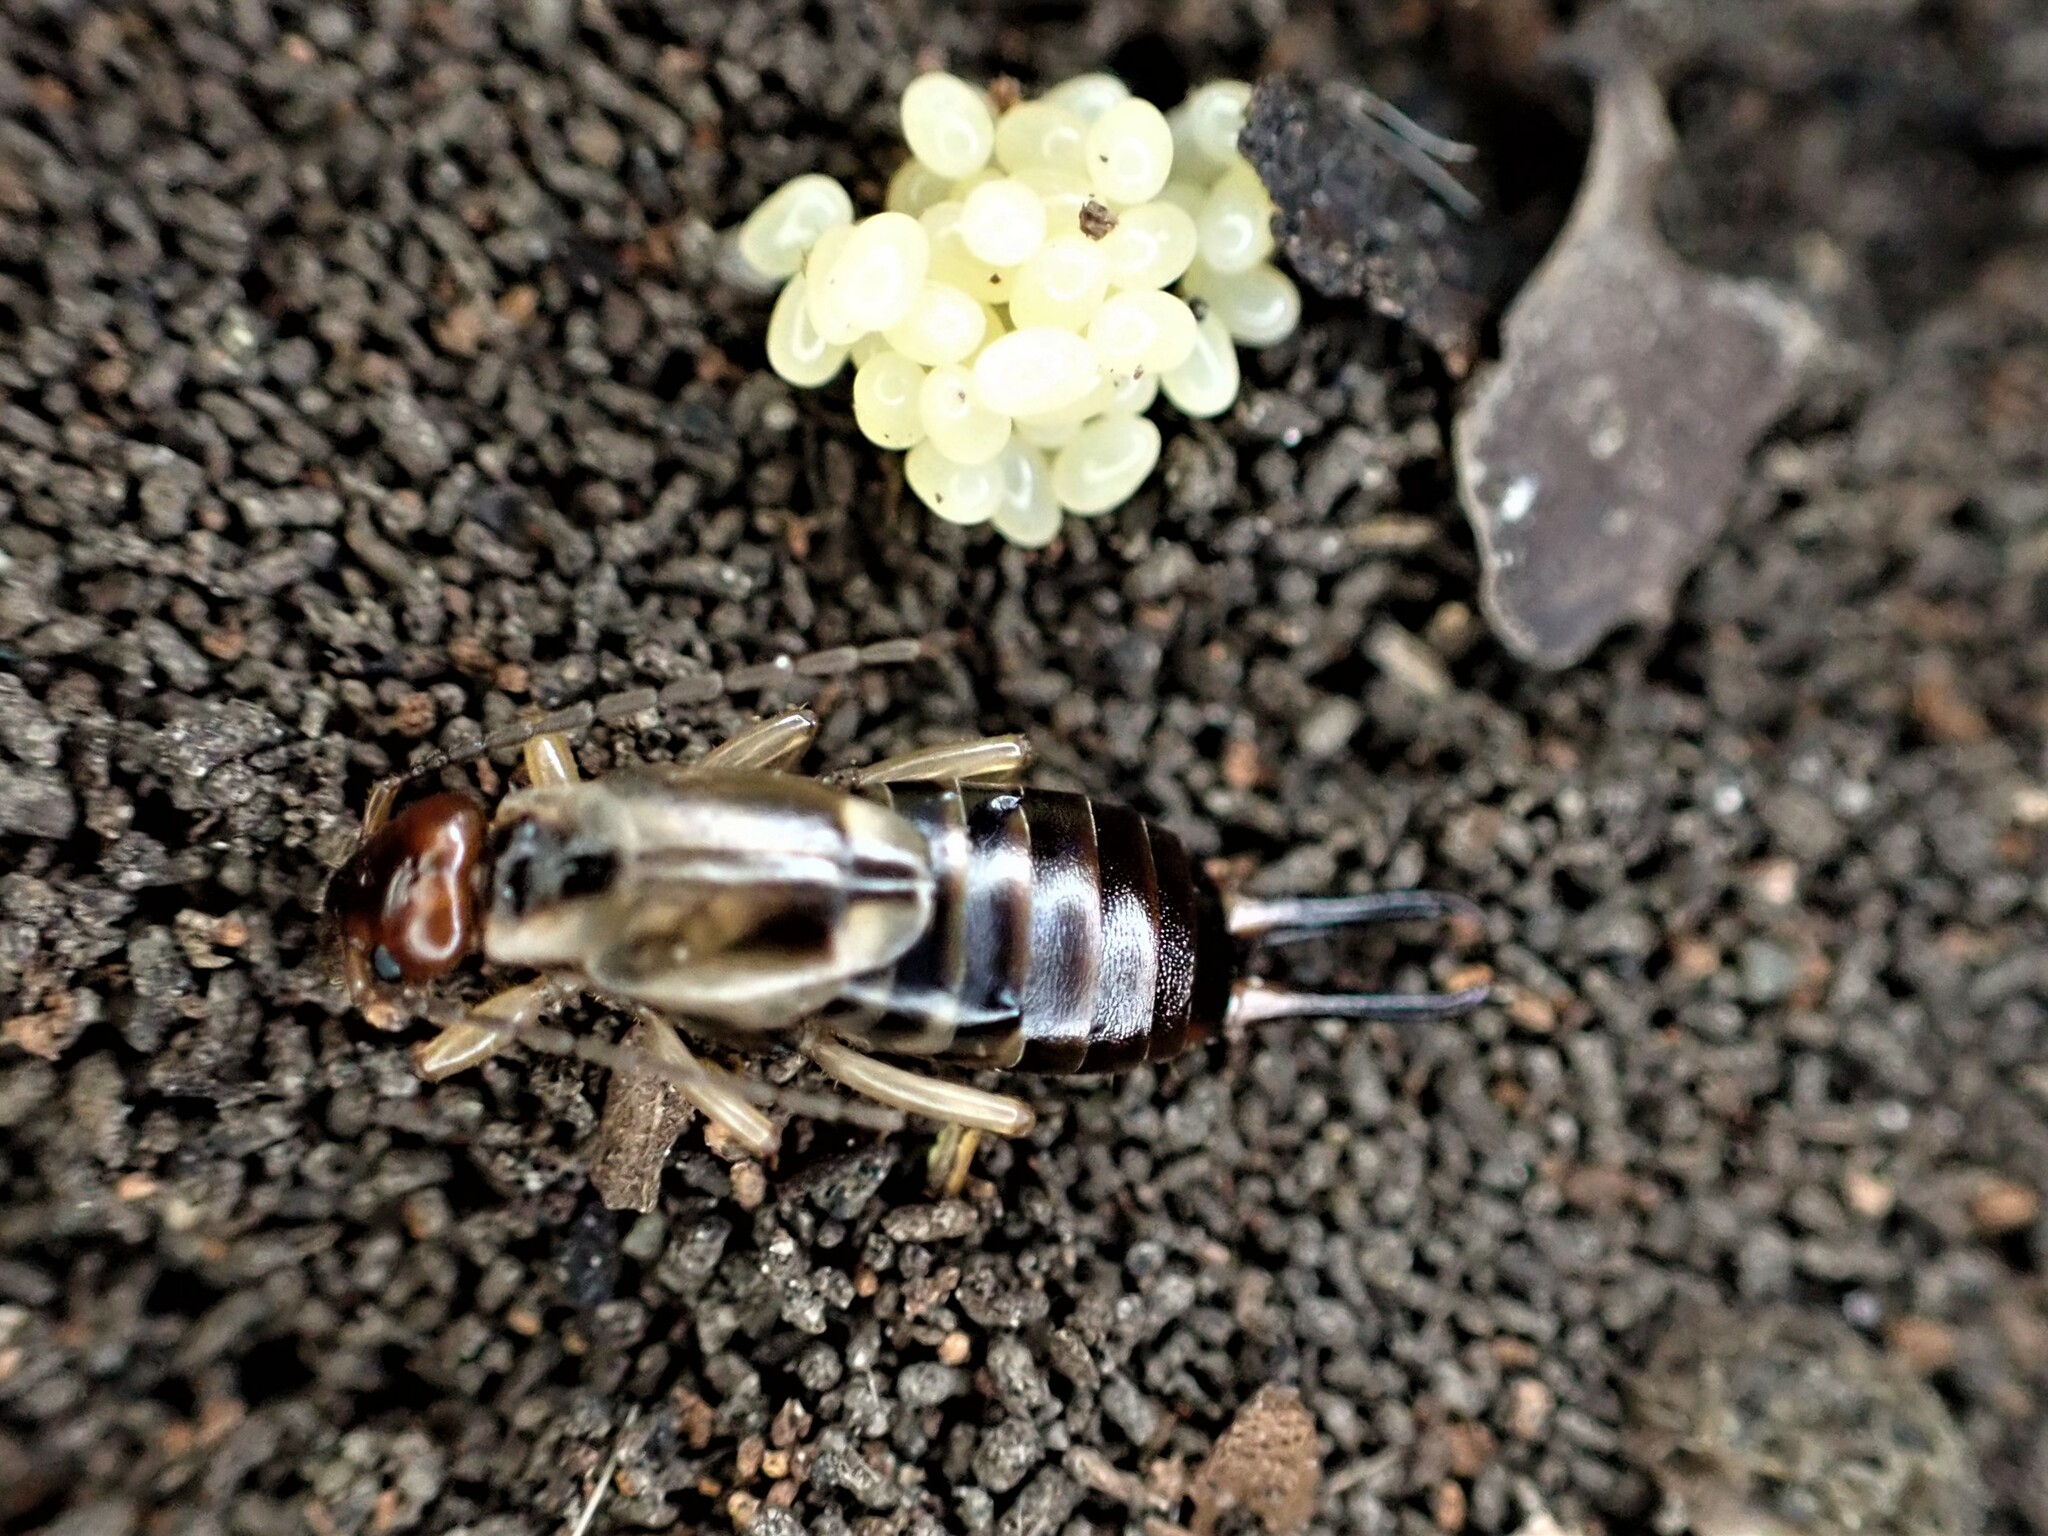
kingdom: Animalia
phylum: Arthropoda
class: Insecta
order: Dermaptera
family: Forficulidae
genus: Forficula
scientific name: Forficula
